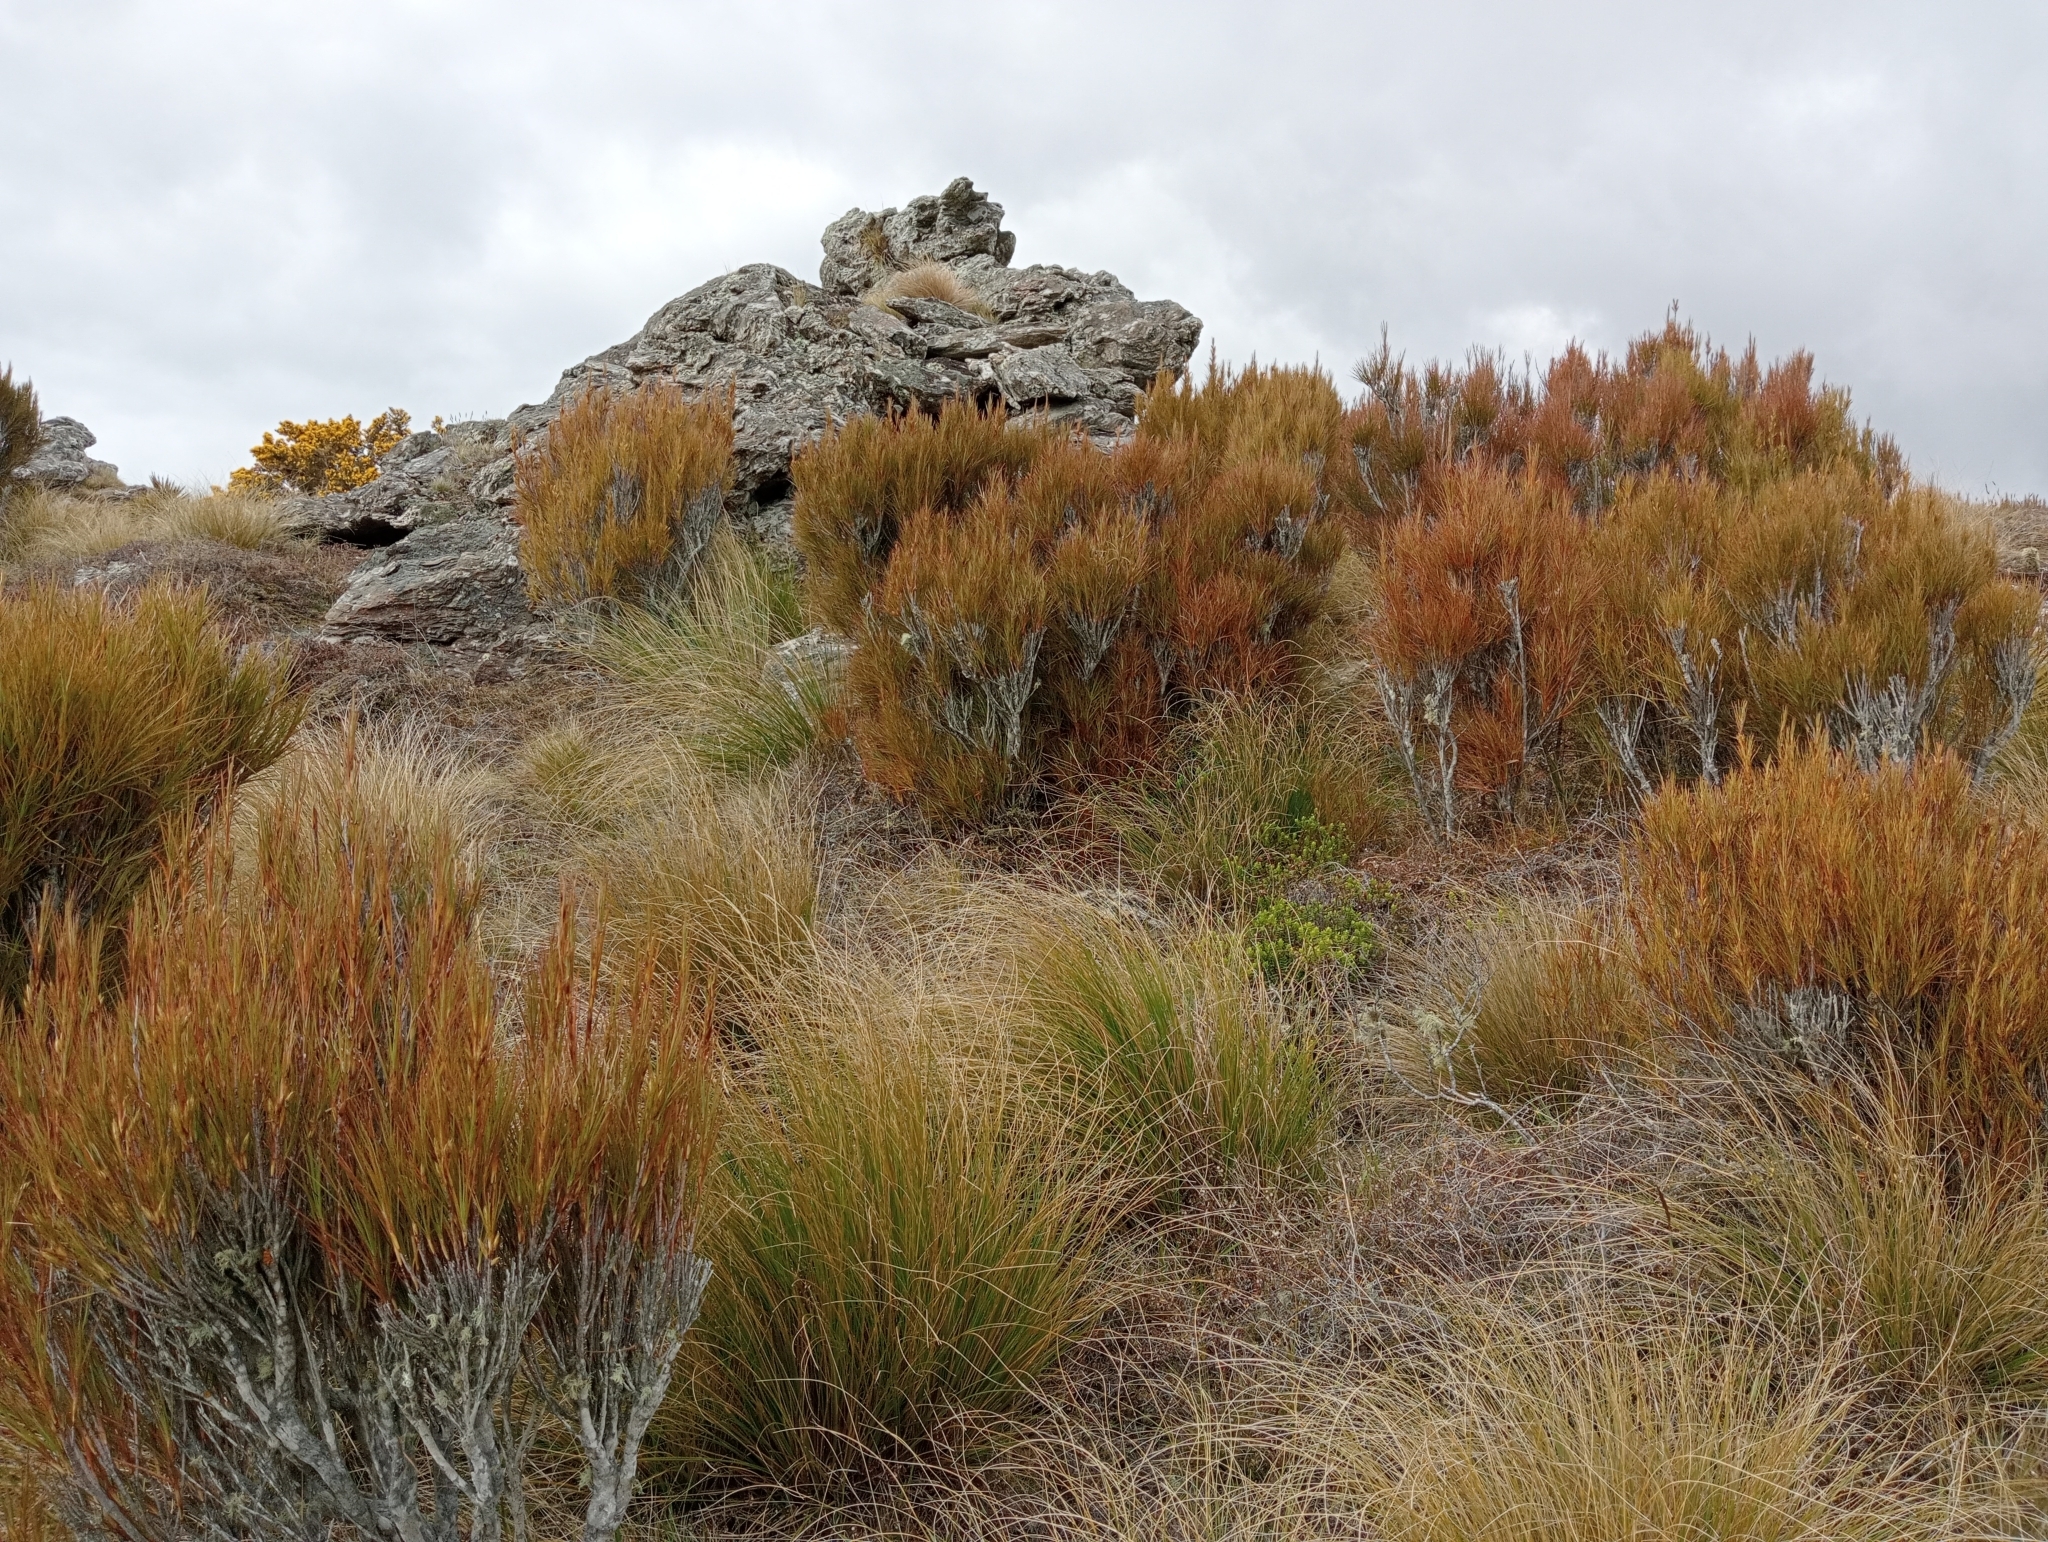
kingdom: Plantae
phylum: Tracheophyta
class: Magnoliopsida
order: Ericales
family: Ericaceae
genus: Dracophyllum
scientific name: Dracophyllum longifolium
